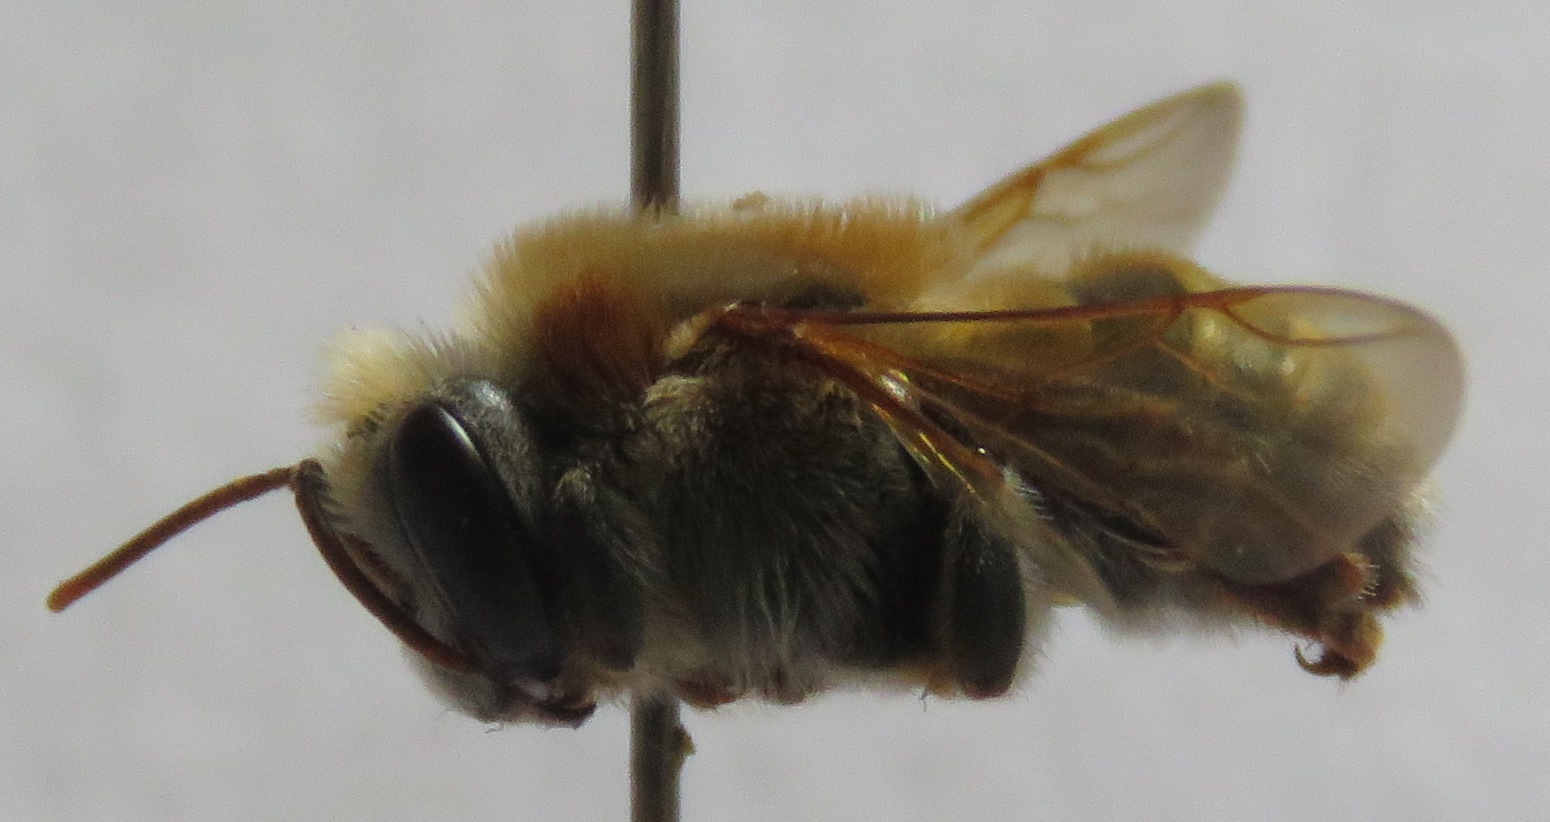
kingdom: Animalia
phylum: Arthropoda
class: Insecta
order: Hymenoptera
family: Apidae
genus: Melipona
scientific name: Melipona beecheii
